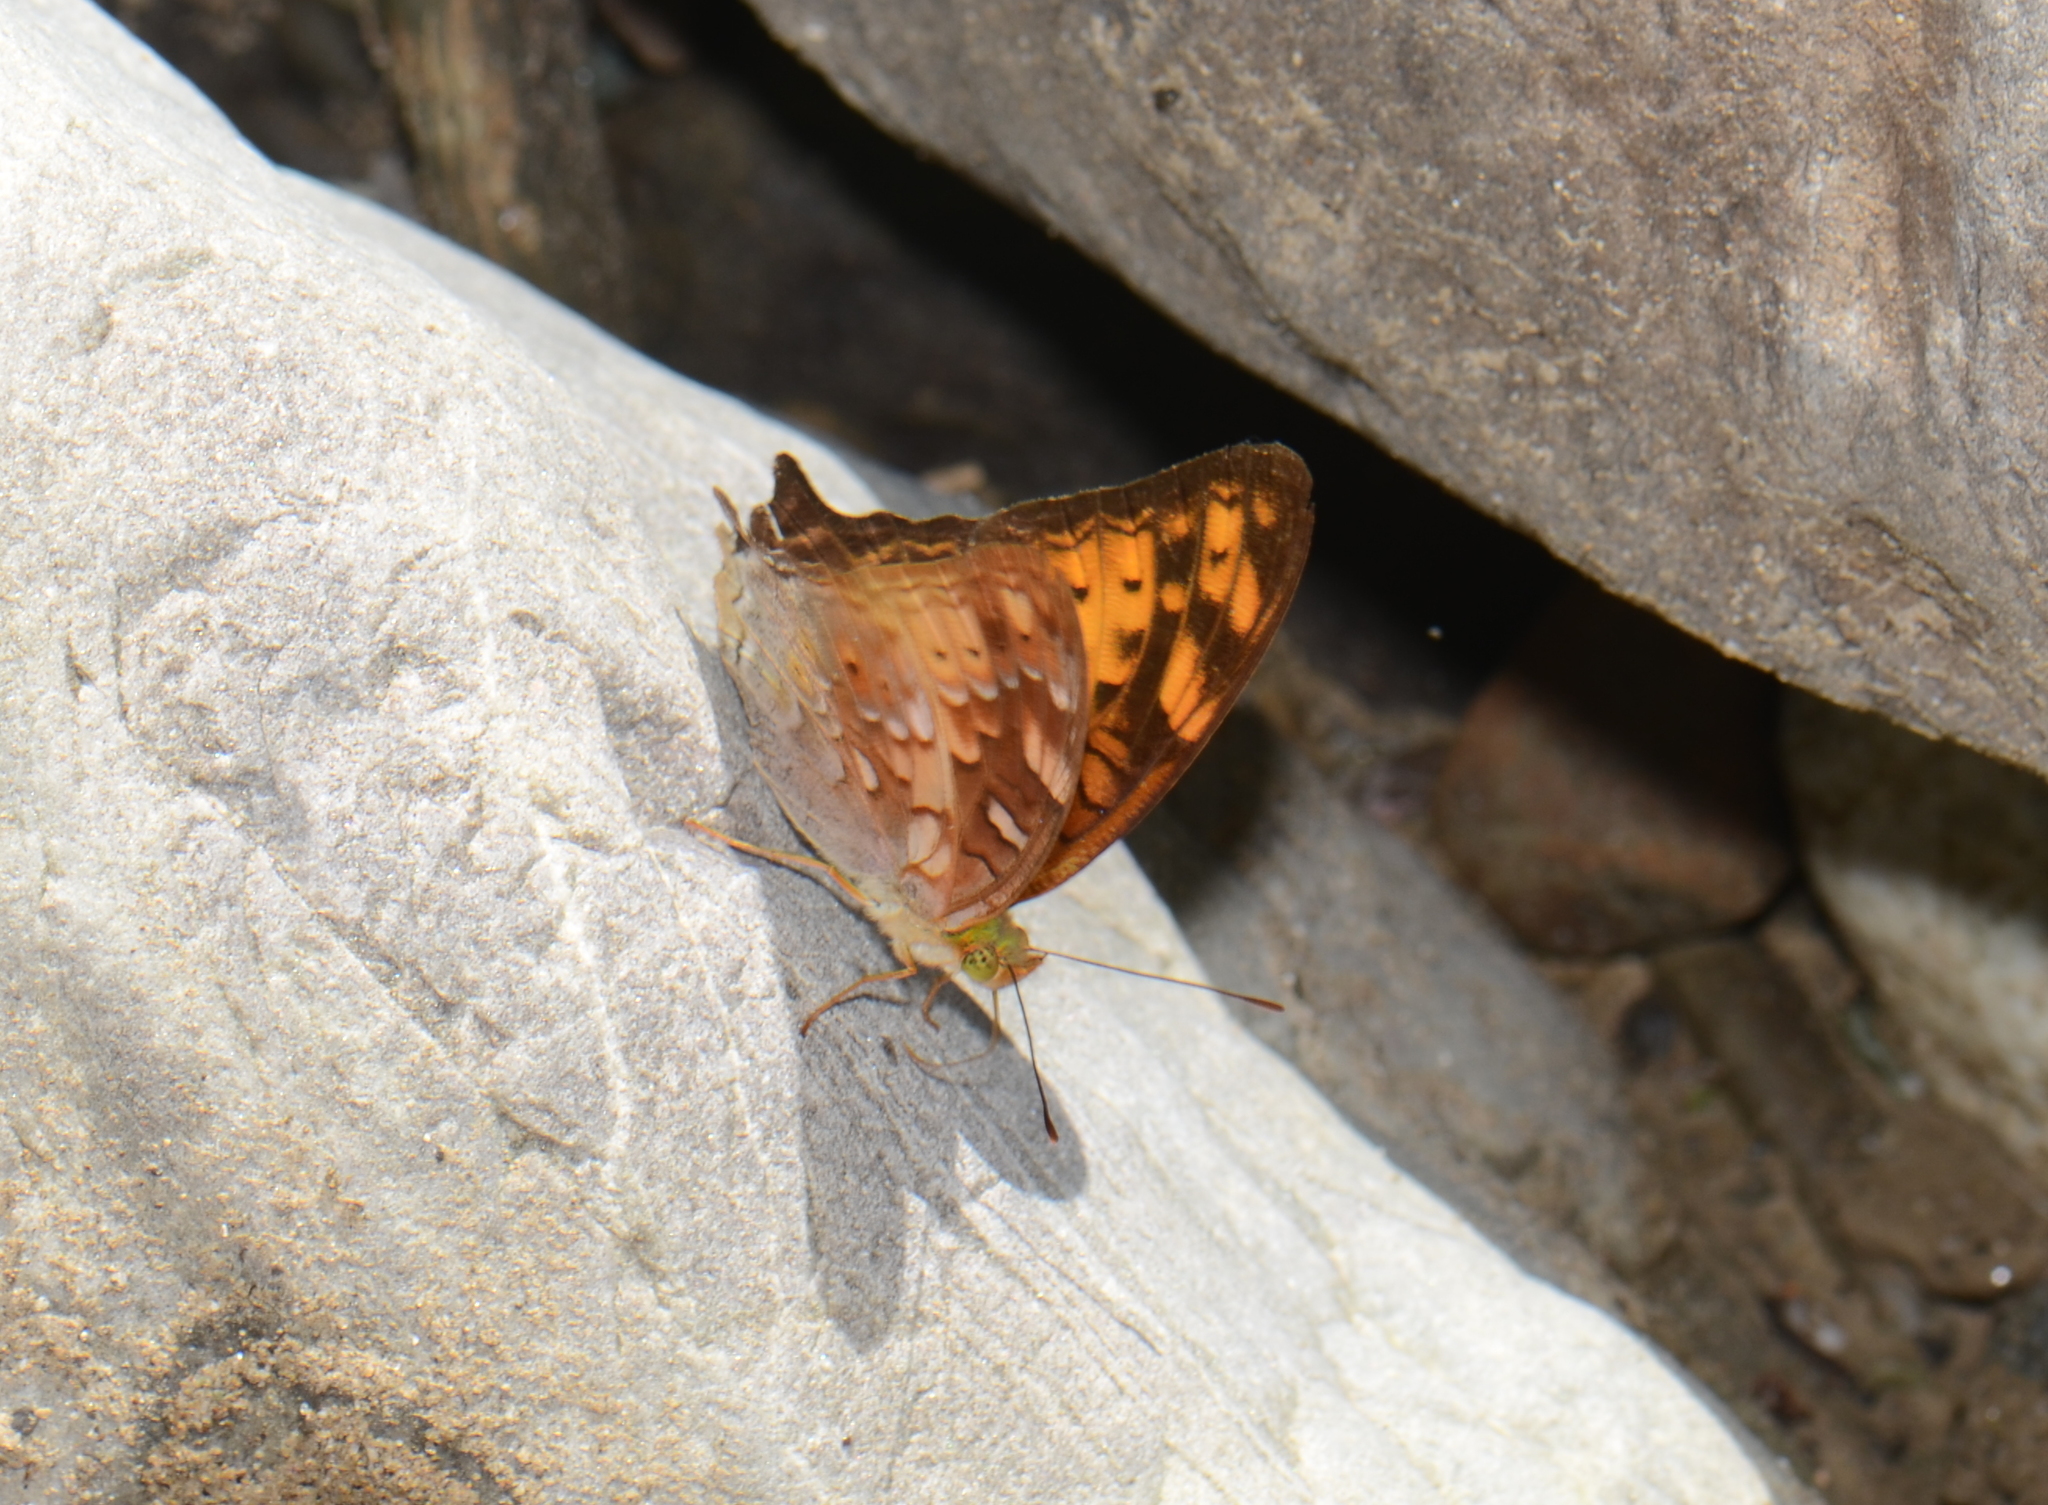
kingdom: Animalia
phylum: Arthropoda
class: Insecta
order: Lepidoptera
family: Nymphalidae
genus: Vagrans
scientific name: Vagrans sinha
